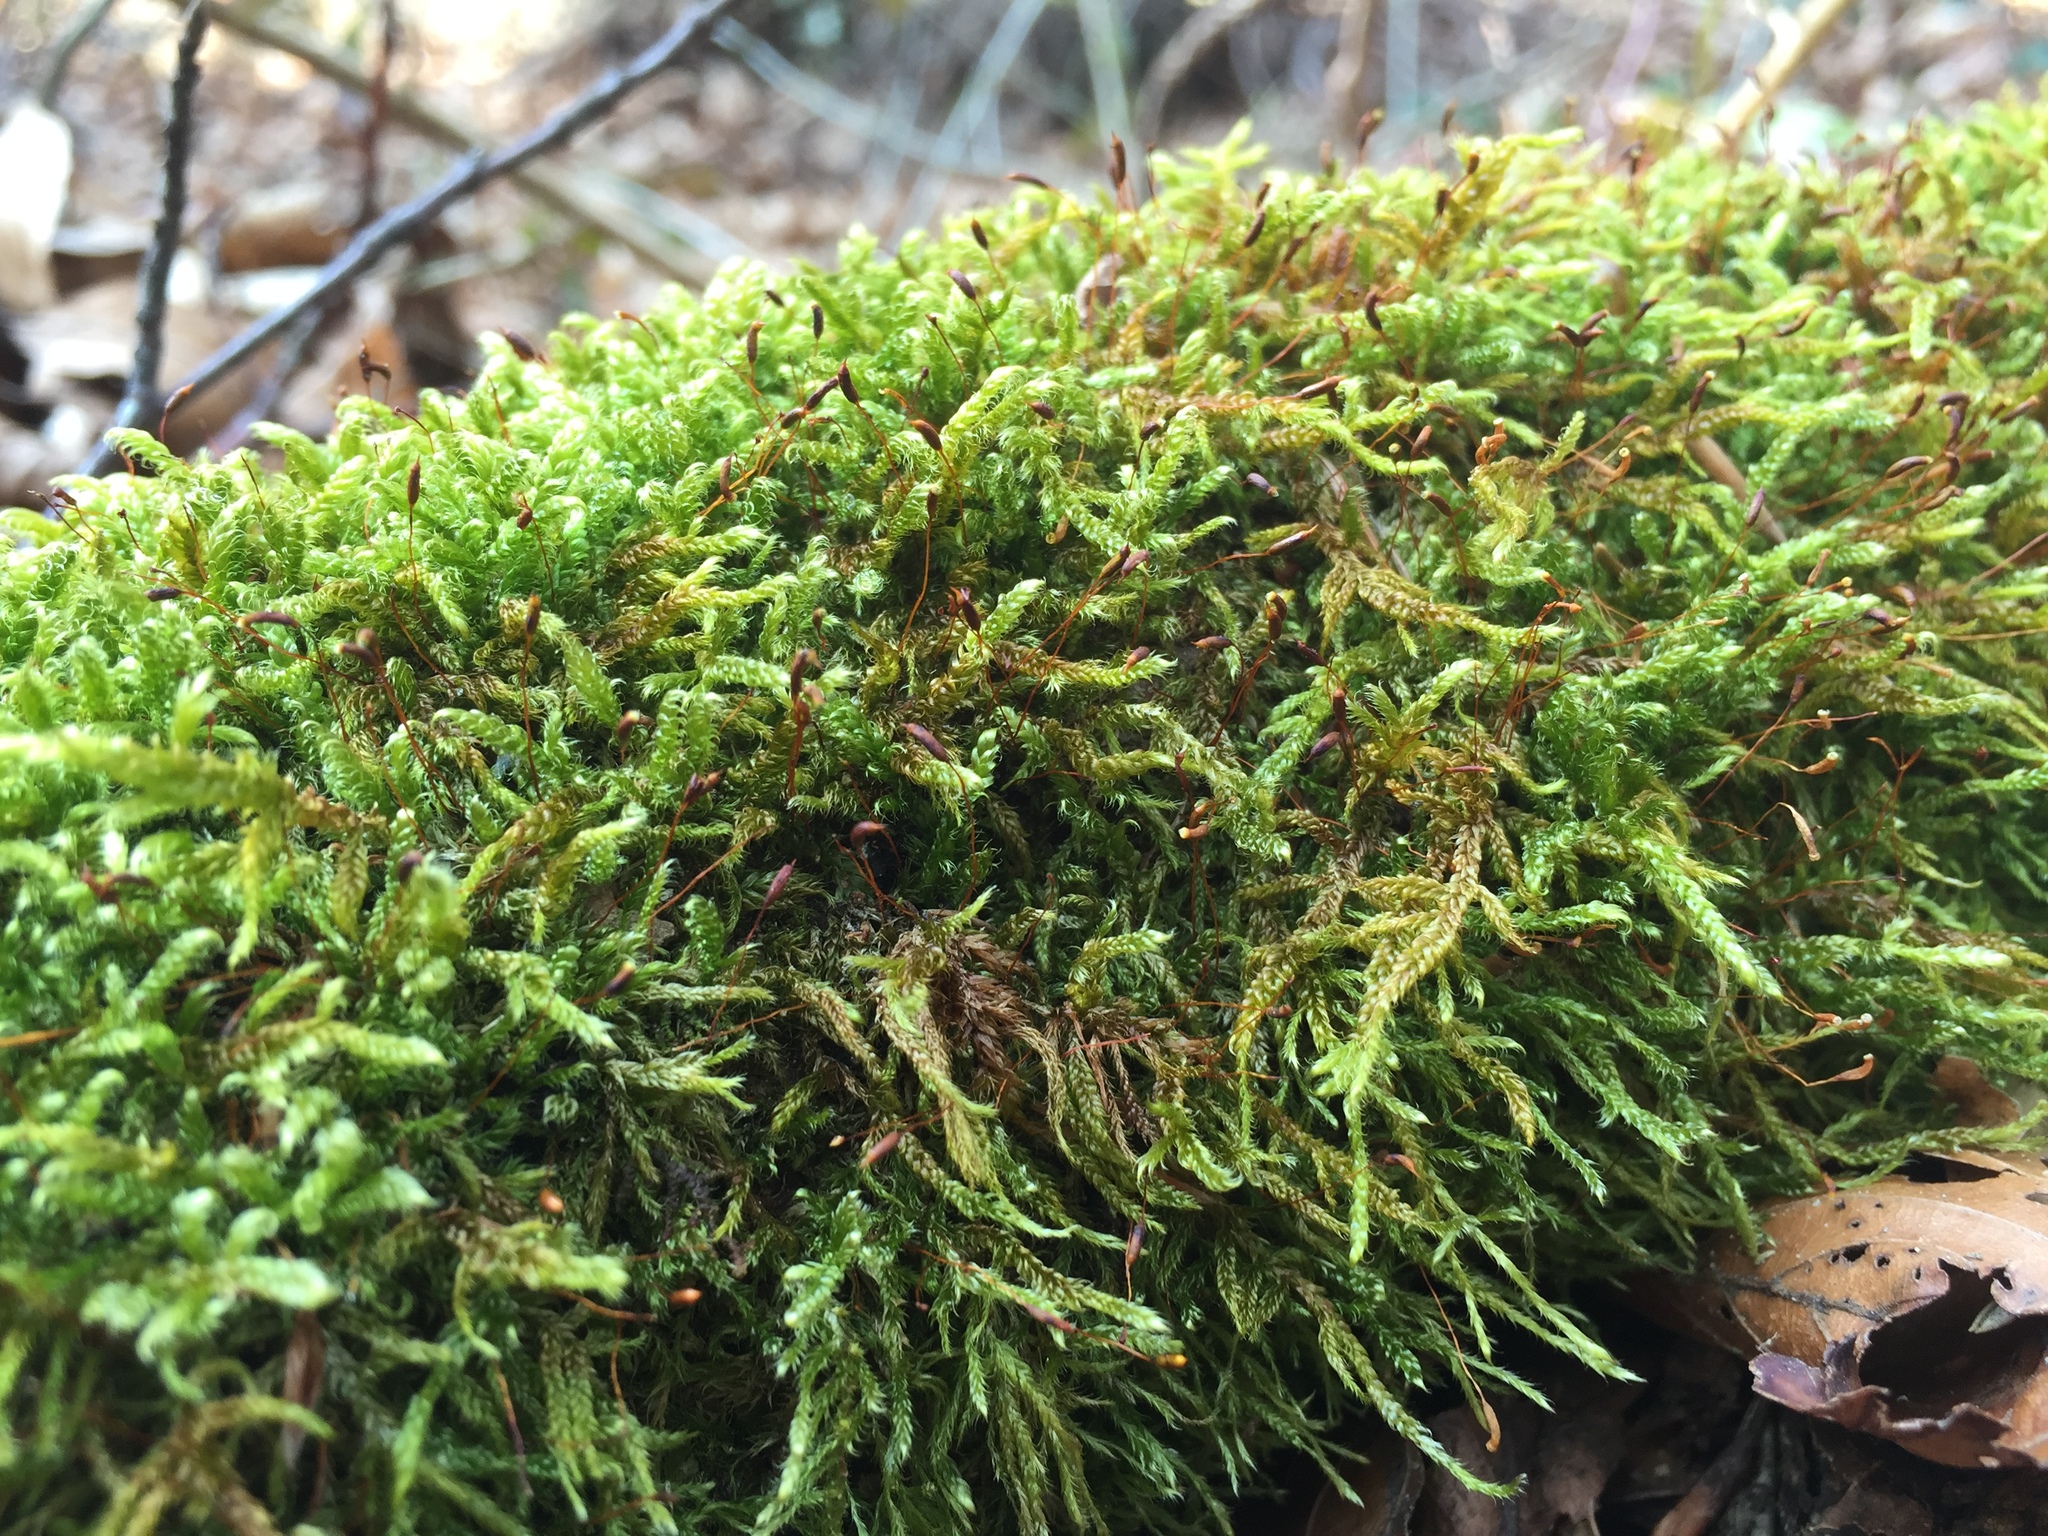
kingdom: Plantae
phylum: Bryophyta
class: Bryopsida
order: Hypnales
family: Hypnaceae
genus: Hypnum
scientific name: Hypnum cupressiforme
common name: Cypress-leaved plait-moss
